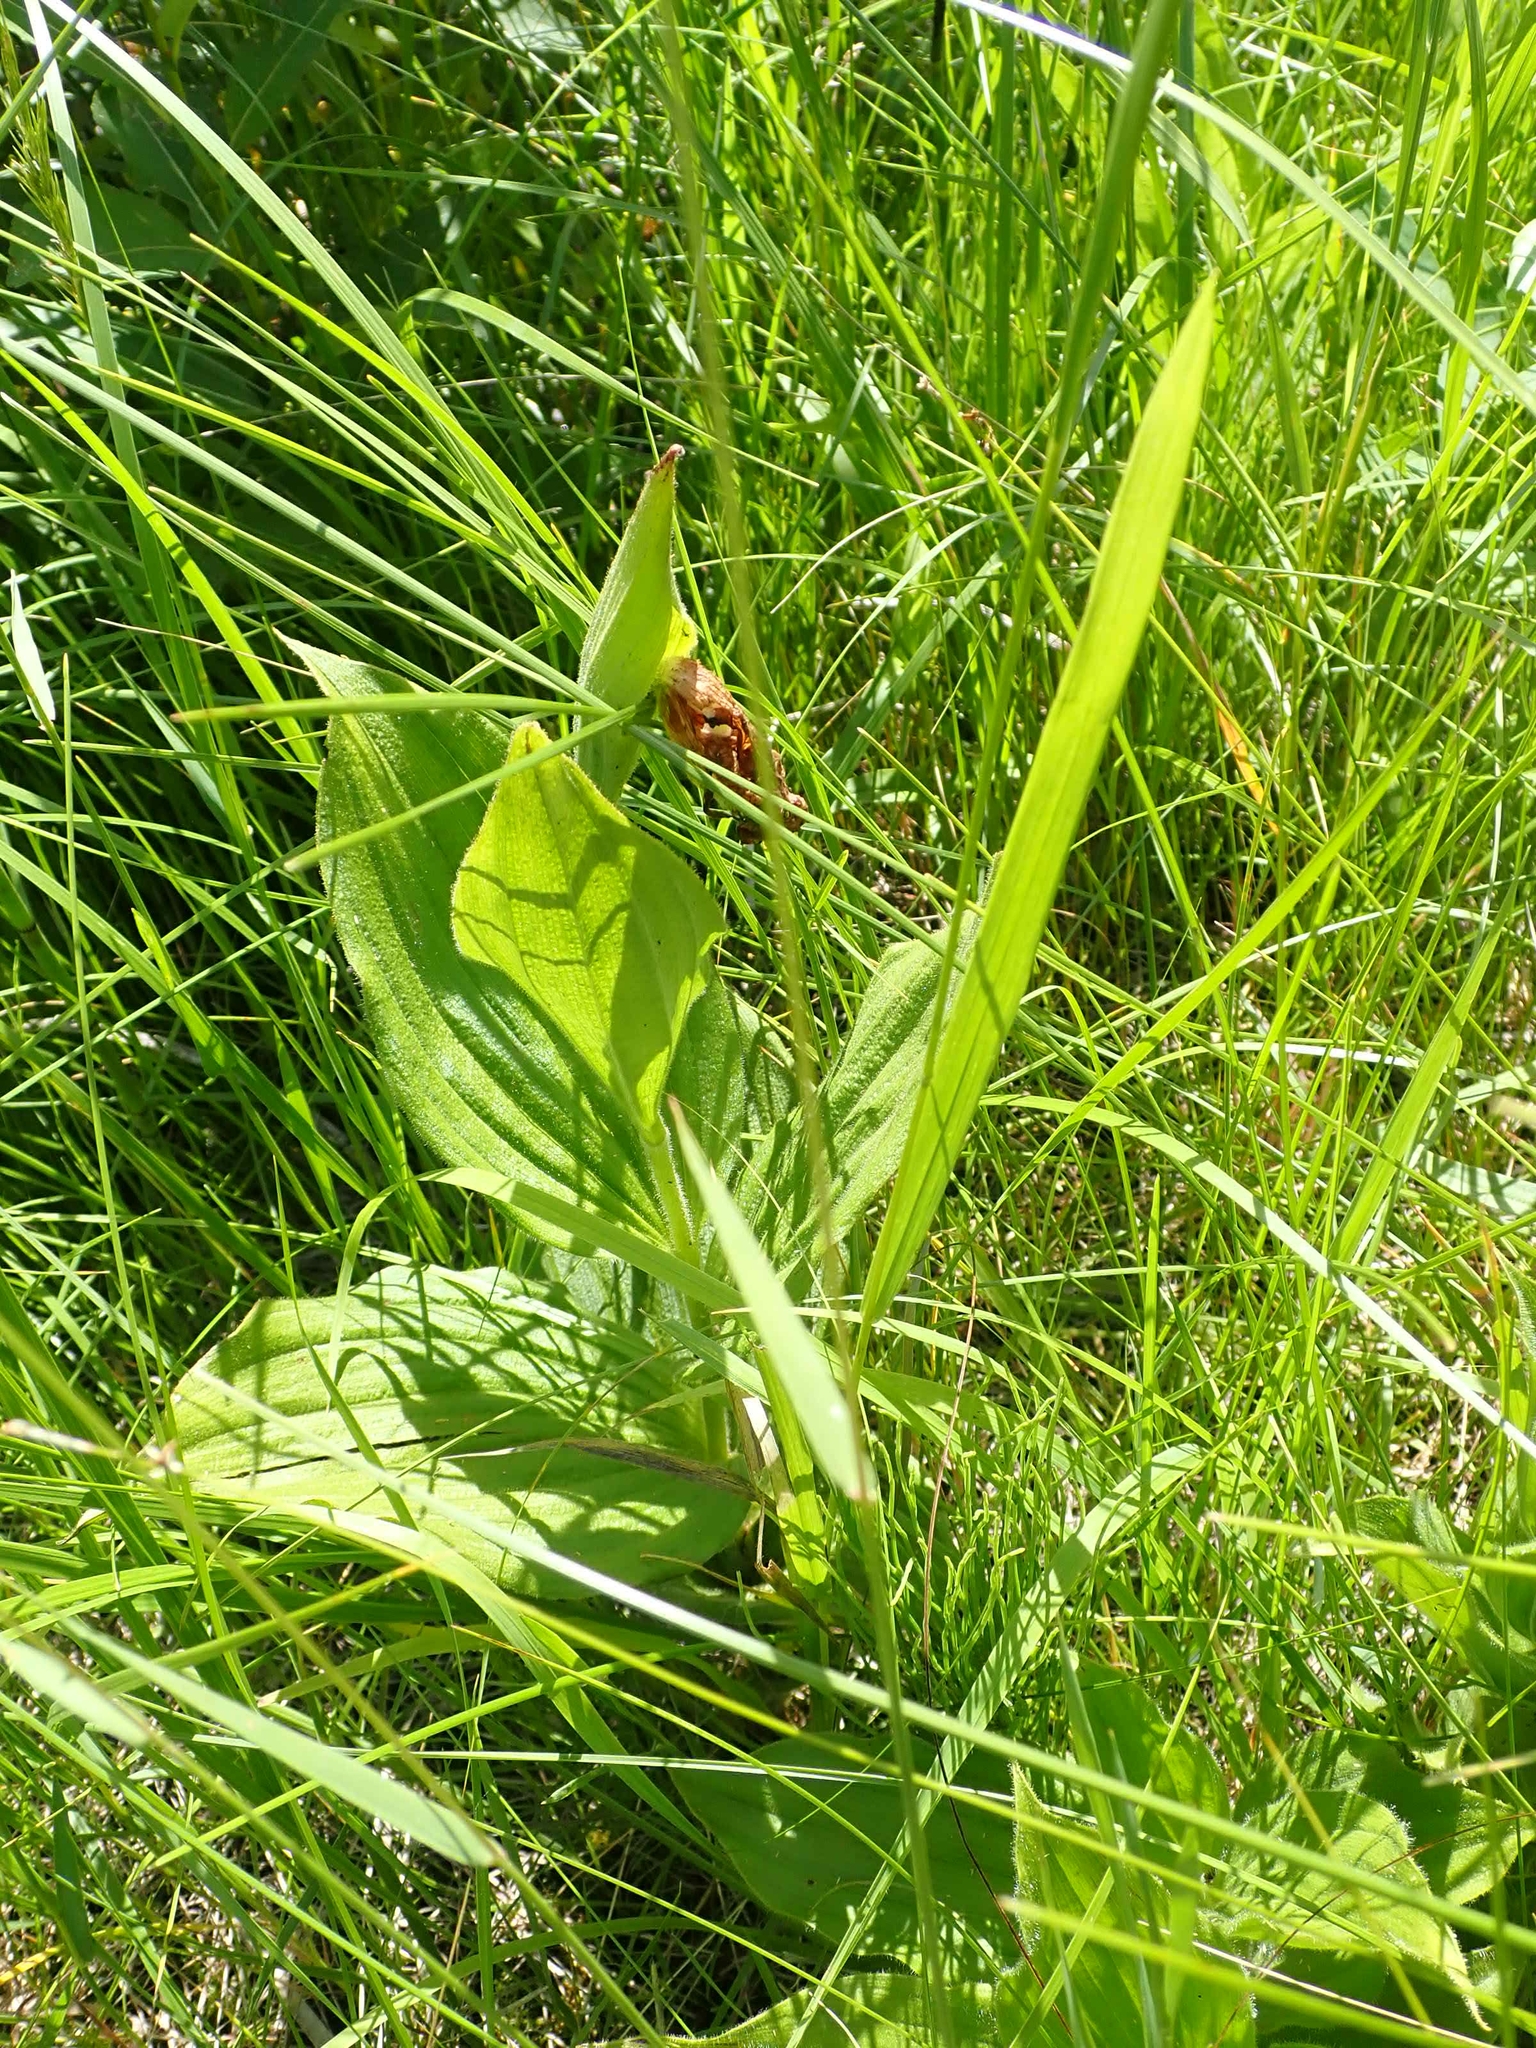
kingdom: Plantae
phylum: Tracheophyta
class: Liliopsida
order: Asparagales
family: Orchidaceae
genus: Cypripedium
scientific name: Cypripedium reginae
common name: Queen lady's-slipper
